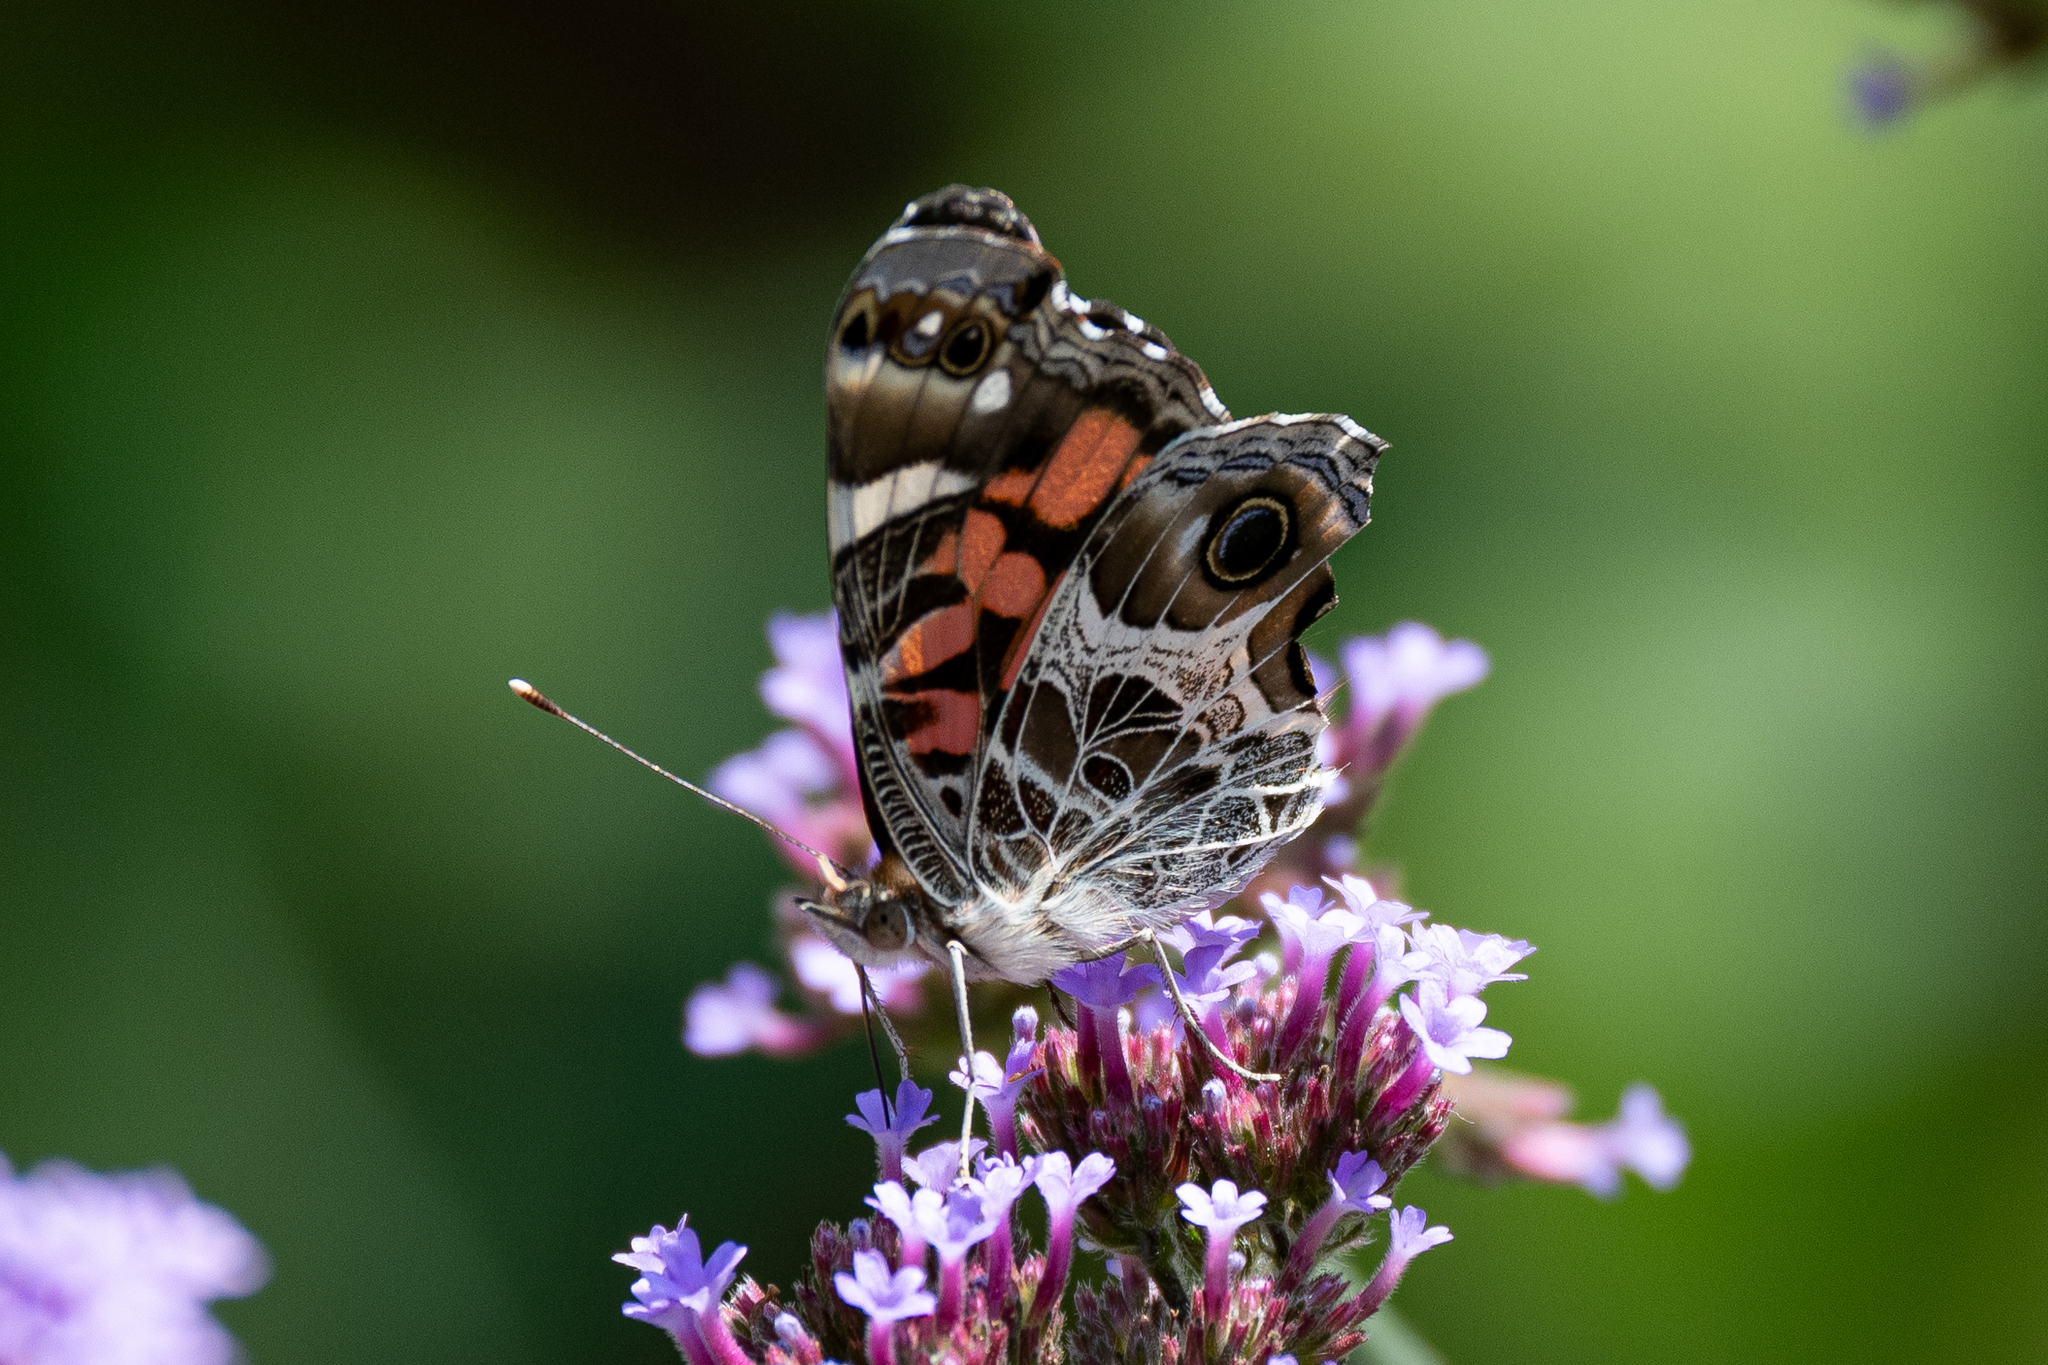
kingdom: Animalia
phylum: Arthropoda
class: Insecta
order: Lepidoptera
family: Nymphalidae
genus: Vanessa
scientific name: Vanessa virginiensis
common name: American lady
